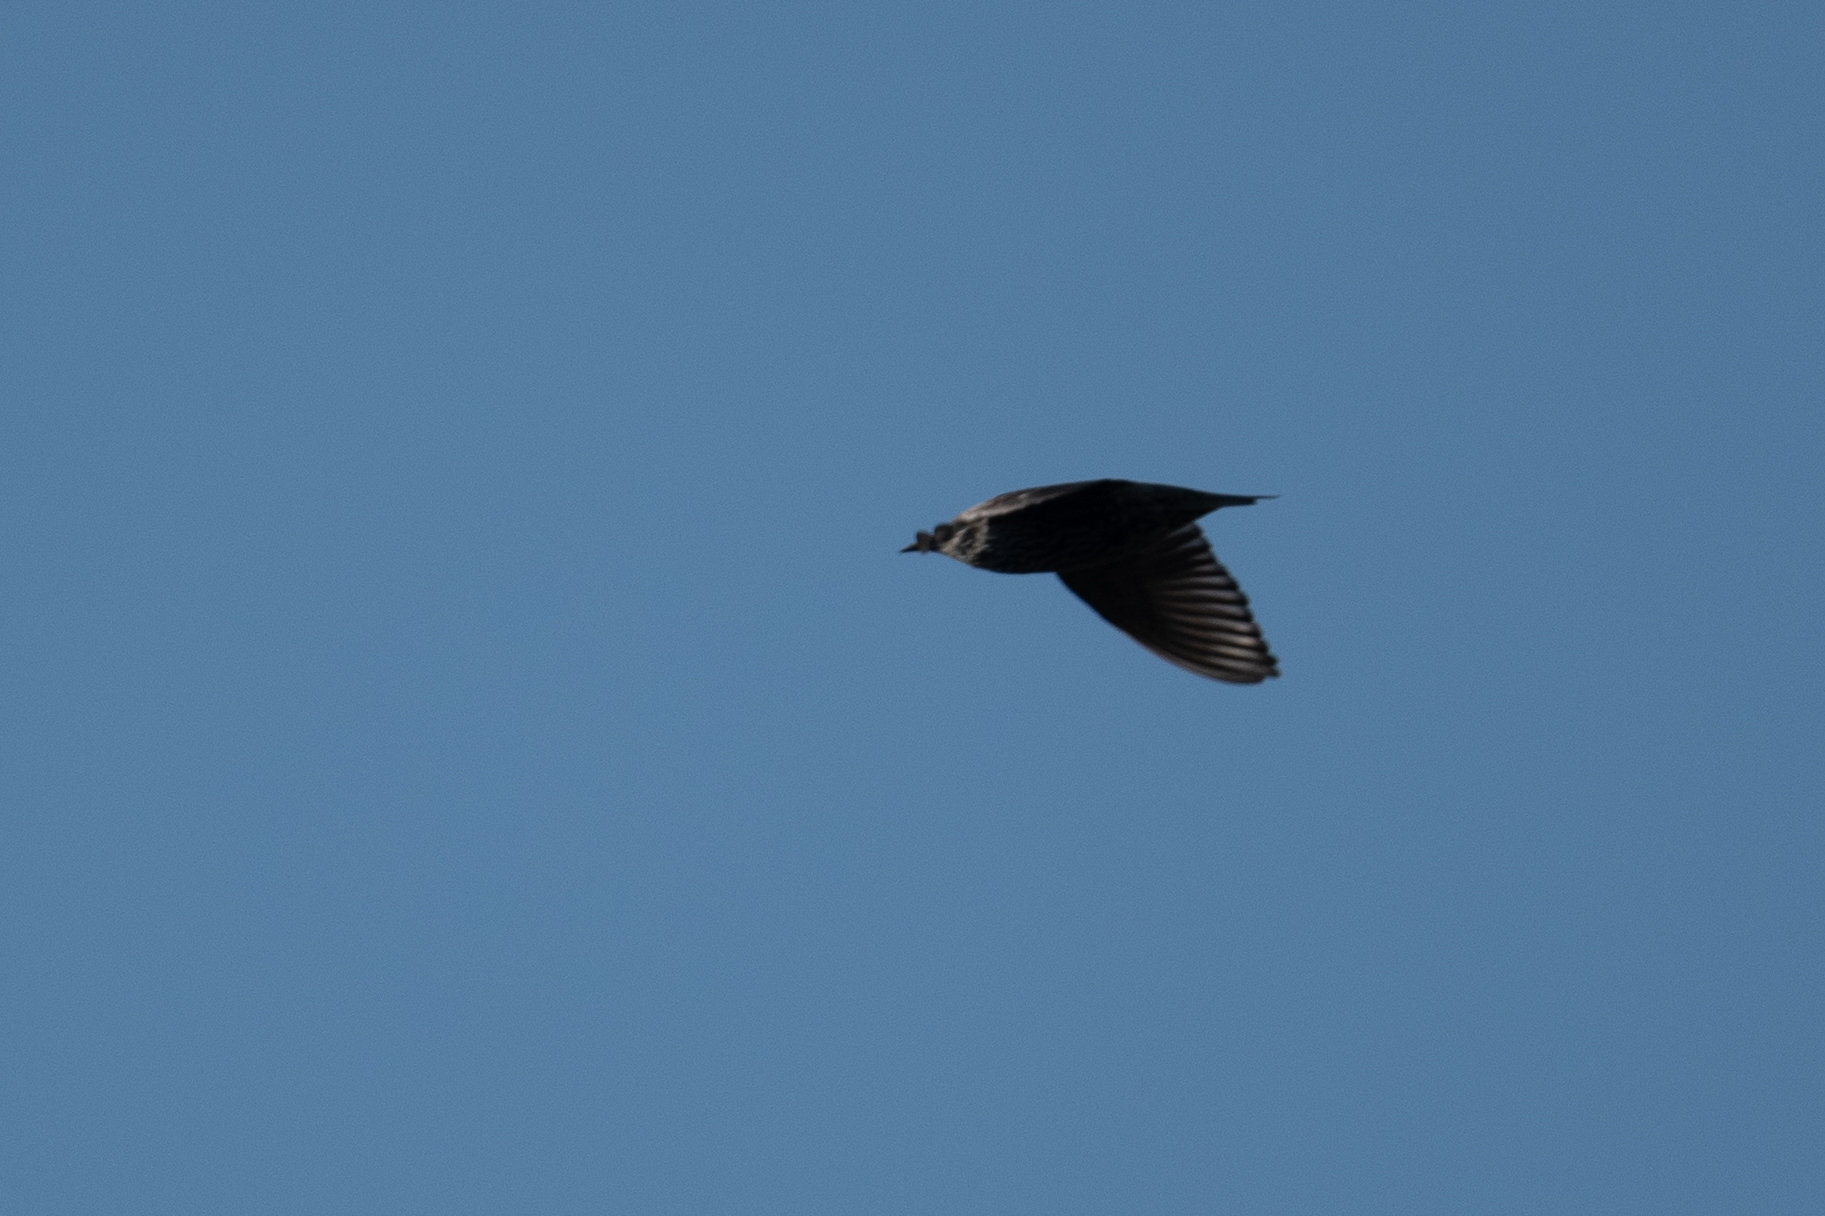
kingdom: Animalia
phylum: Chordata
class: Aves
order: Passeriformes
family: Sturnidae
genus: Sturnus
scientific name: Sturnus vulgaris
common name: Common starling
